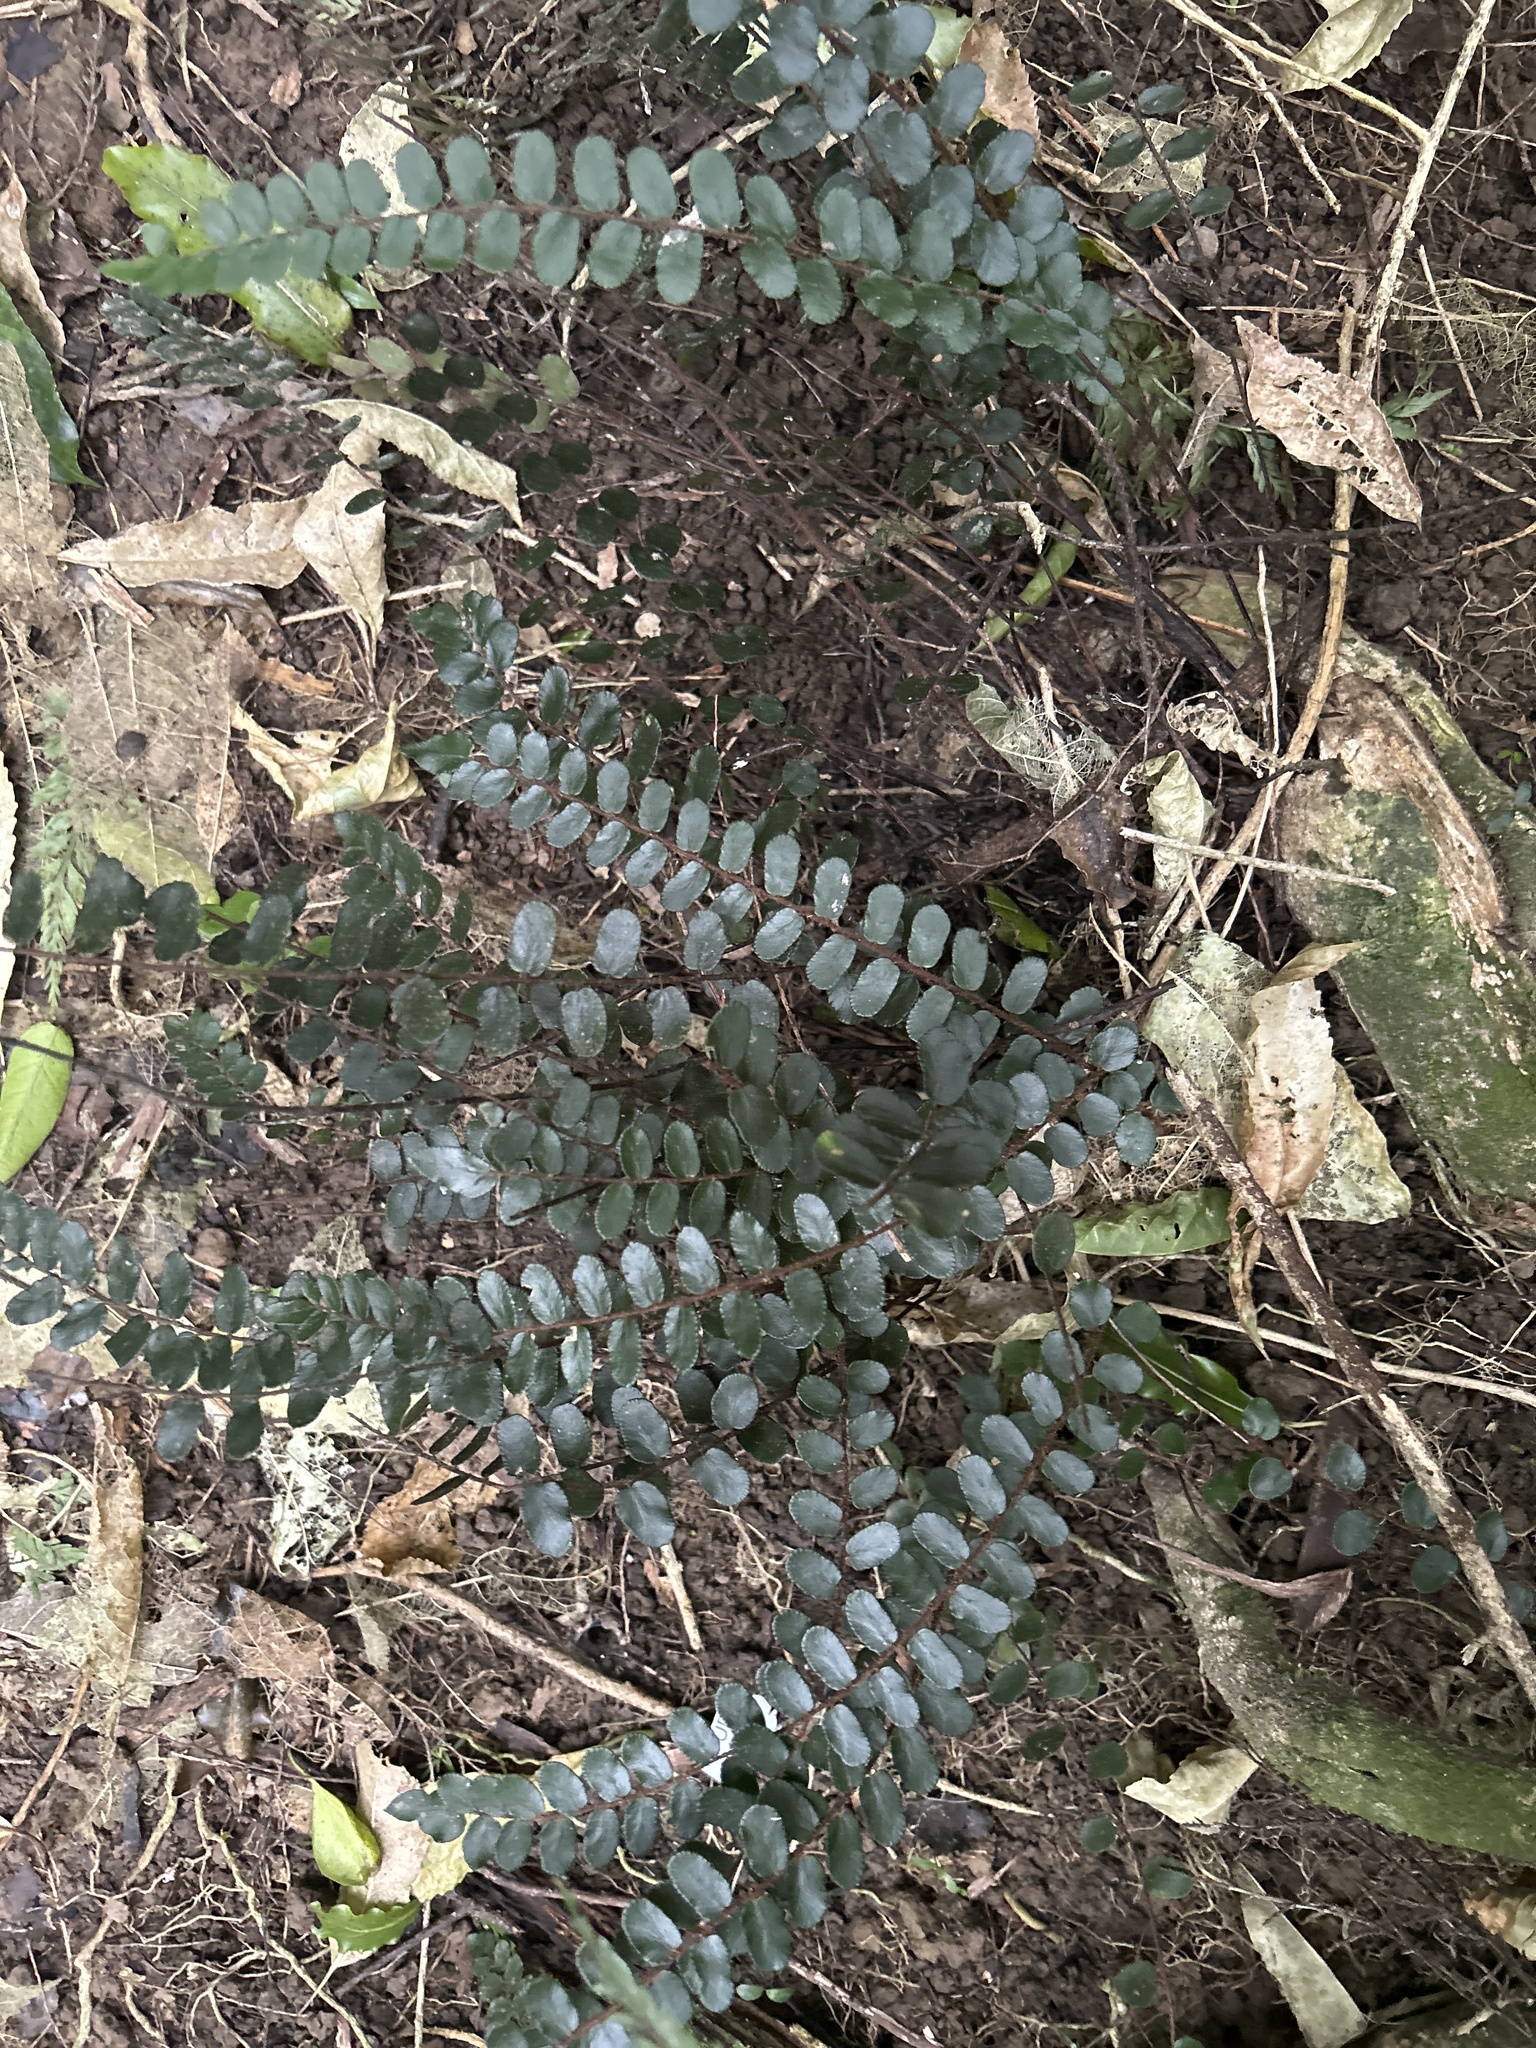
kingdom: Plantae
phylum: Tracheophyta
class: Polypodiopsida
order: Polypodiales
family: Pteridaceae
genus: Pellaea
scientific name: Pellaea rotundifolia
